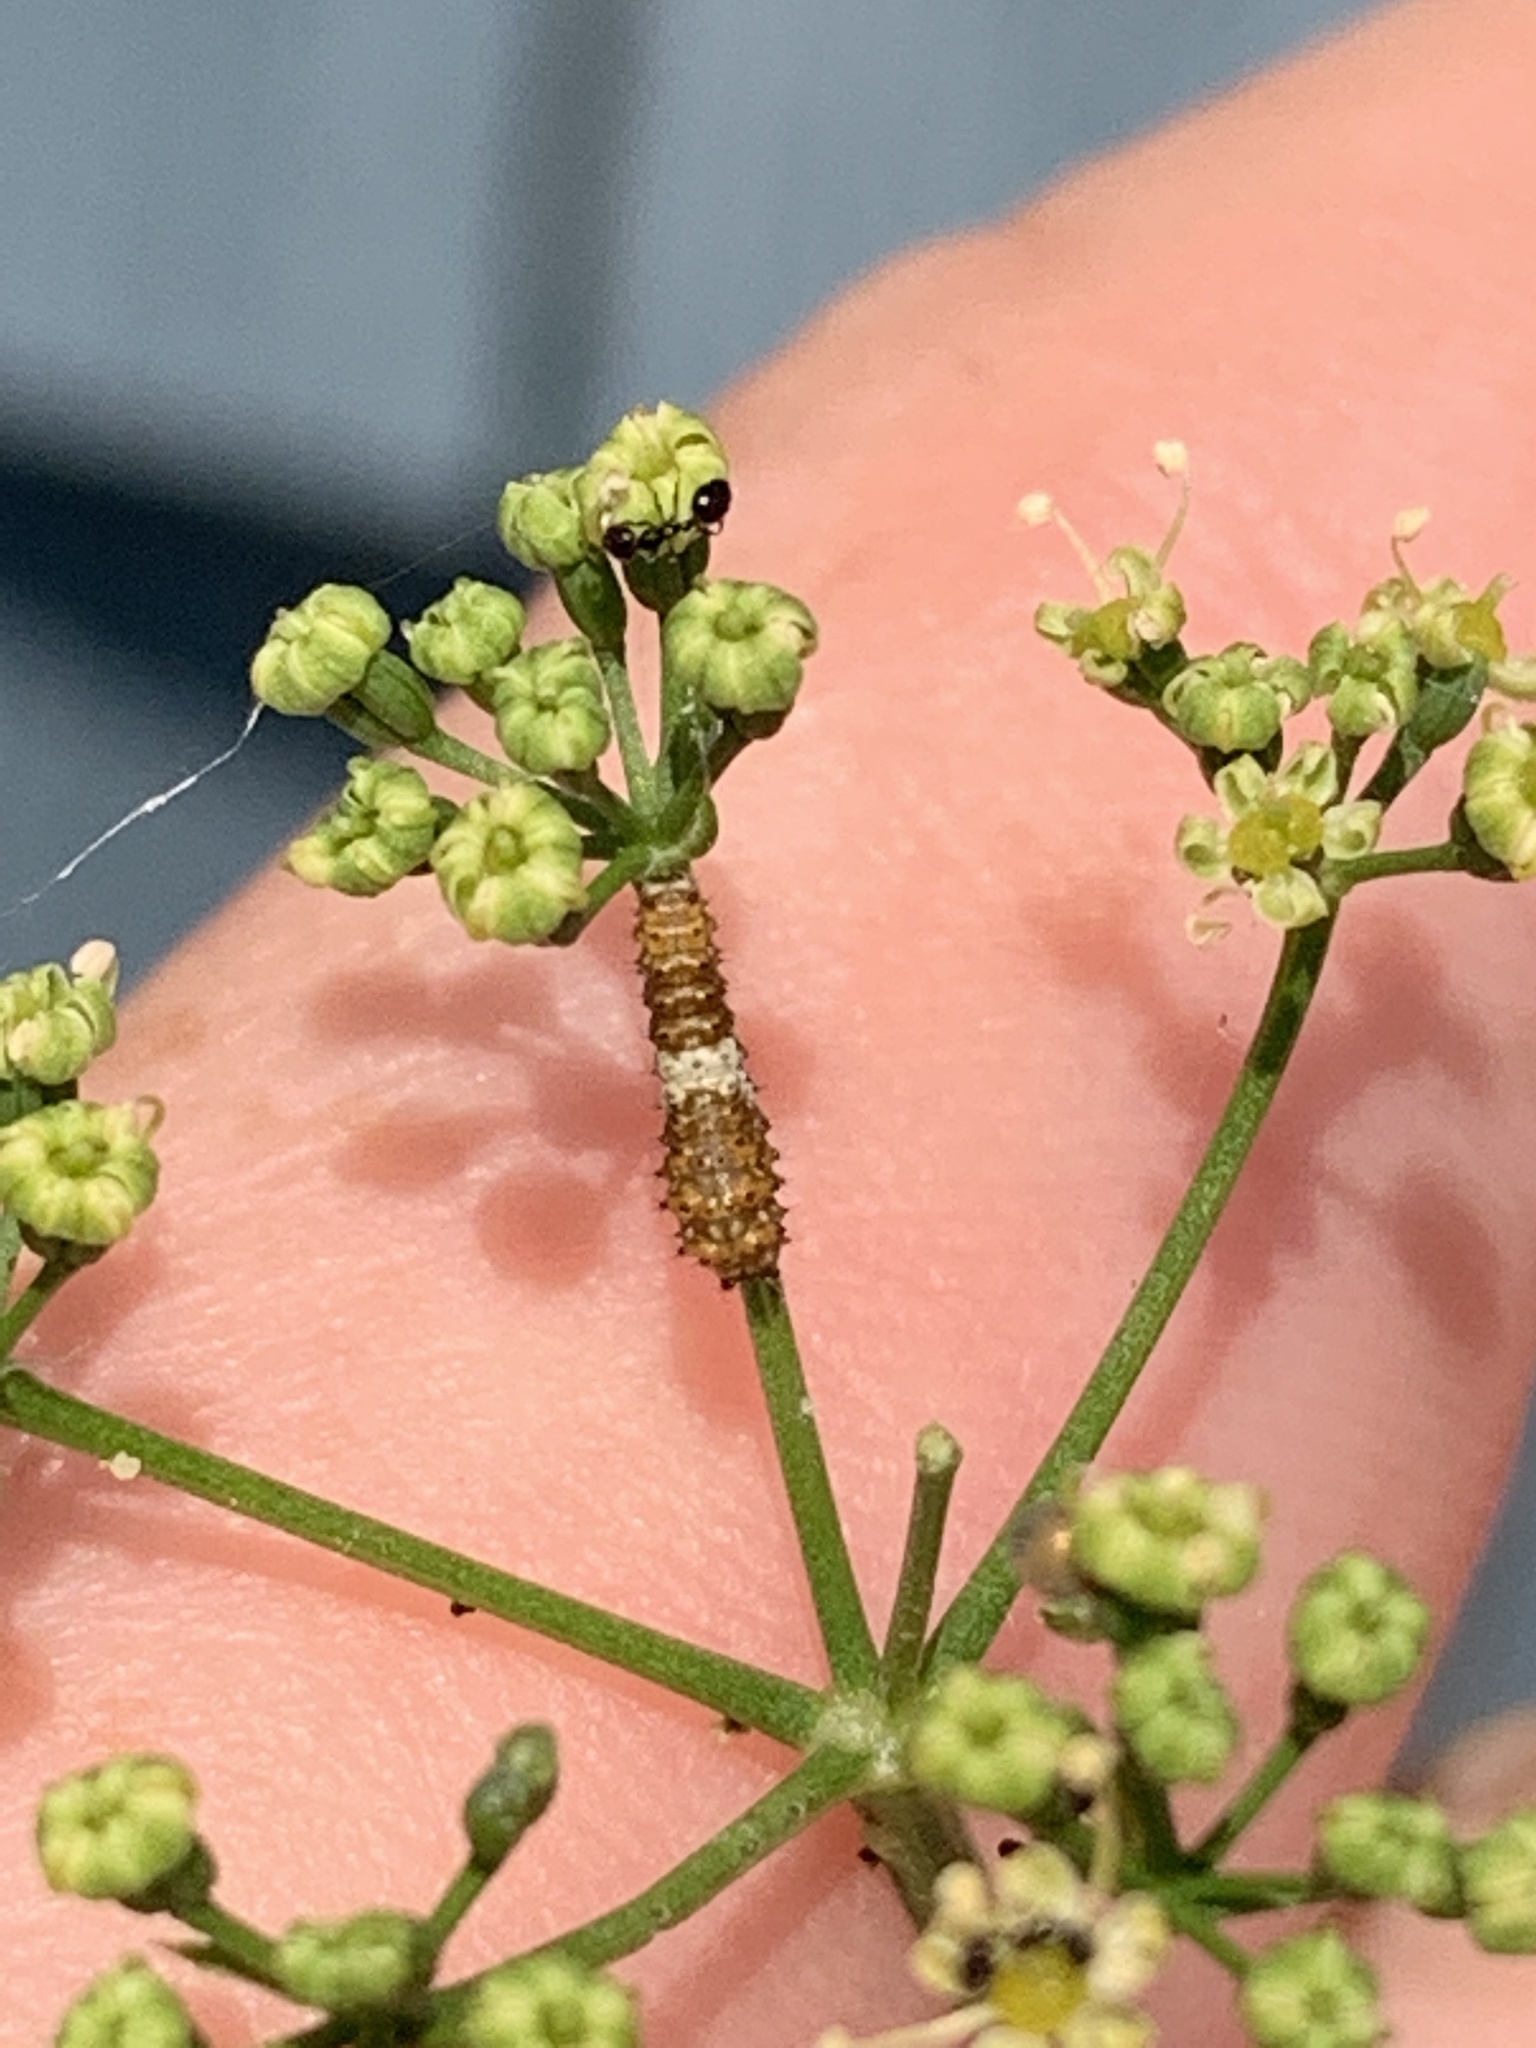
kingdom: Animalia
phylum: Arthropoda
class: Insecta
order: Lepidoptera
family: Papilionidae
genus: Papilio
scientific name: Papilio polyxenes
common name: Black swallowtail
